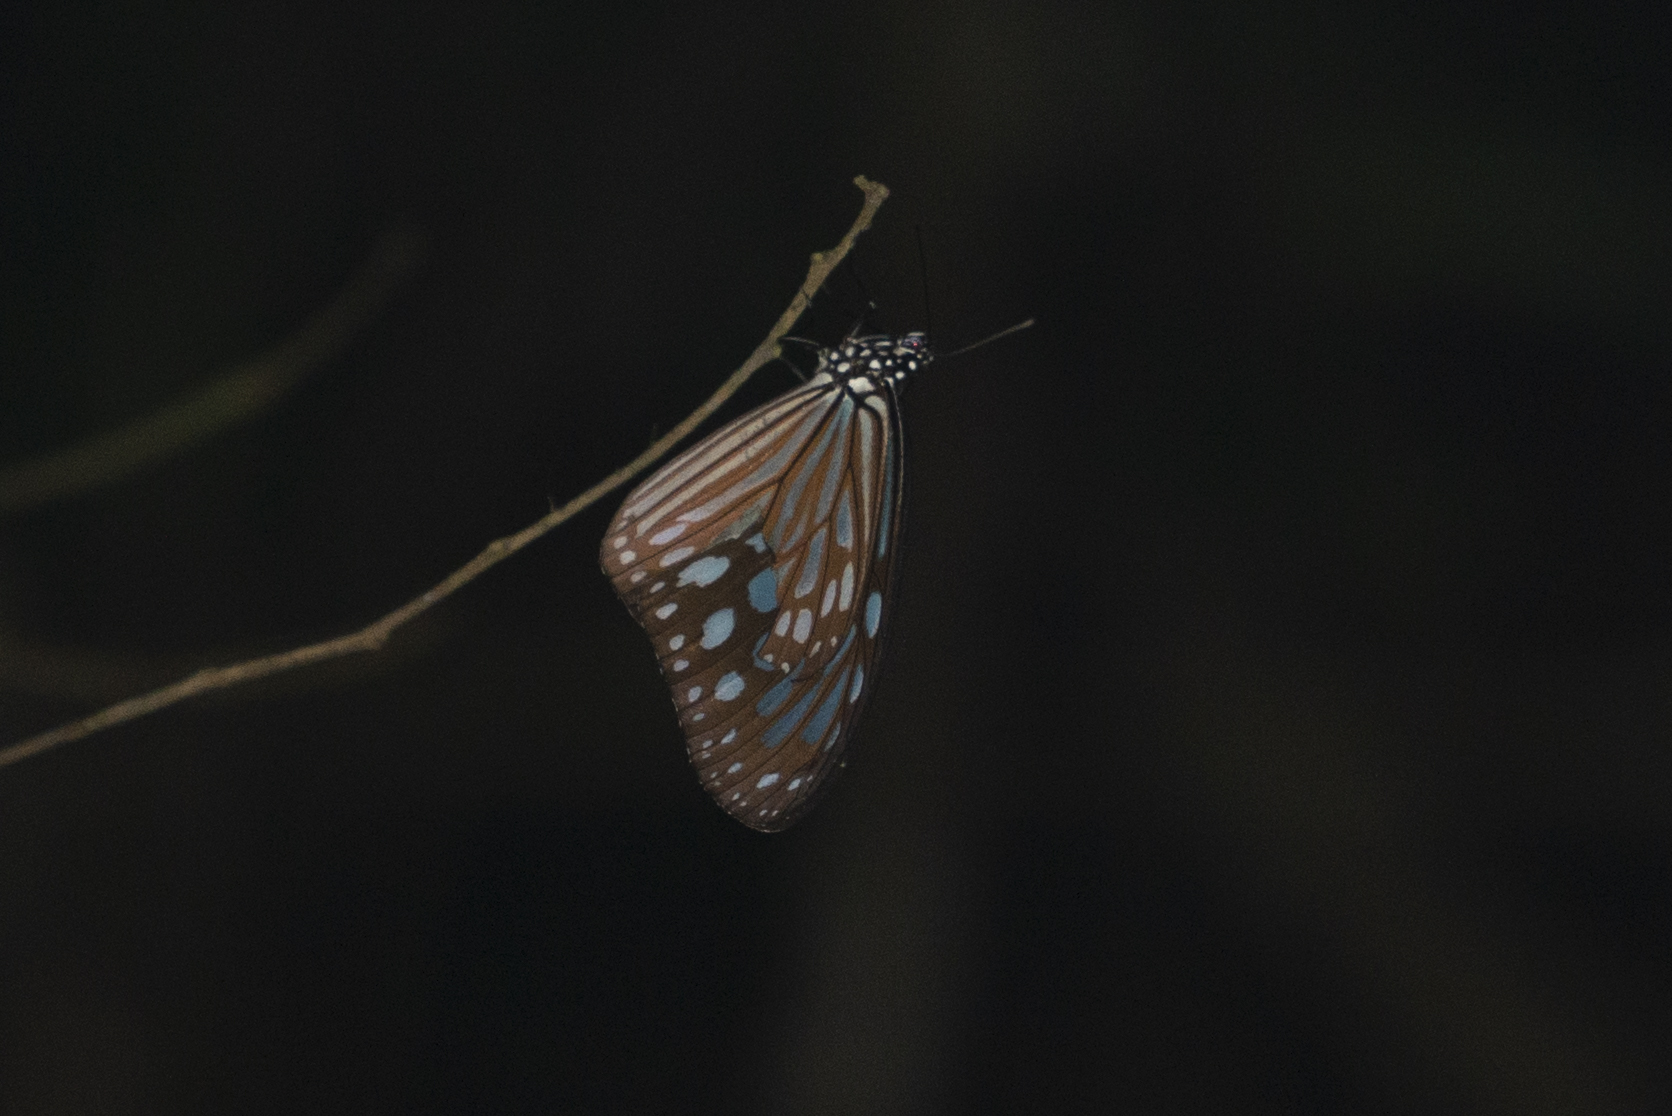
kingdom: Animalia
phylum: Arthropoda
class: Insecta
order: Lepidoptera
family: Nymphalidae
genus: Ideopsis
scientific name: Ideopsis similis
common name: Ceylon blue glassy tiger
